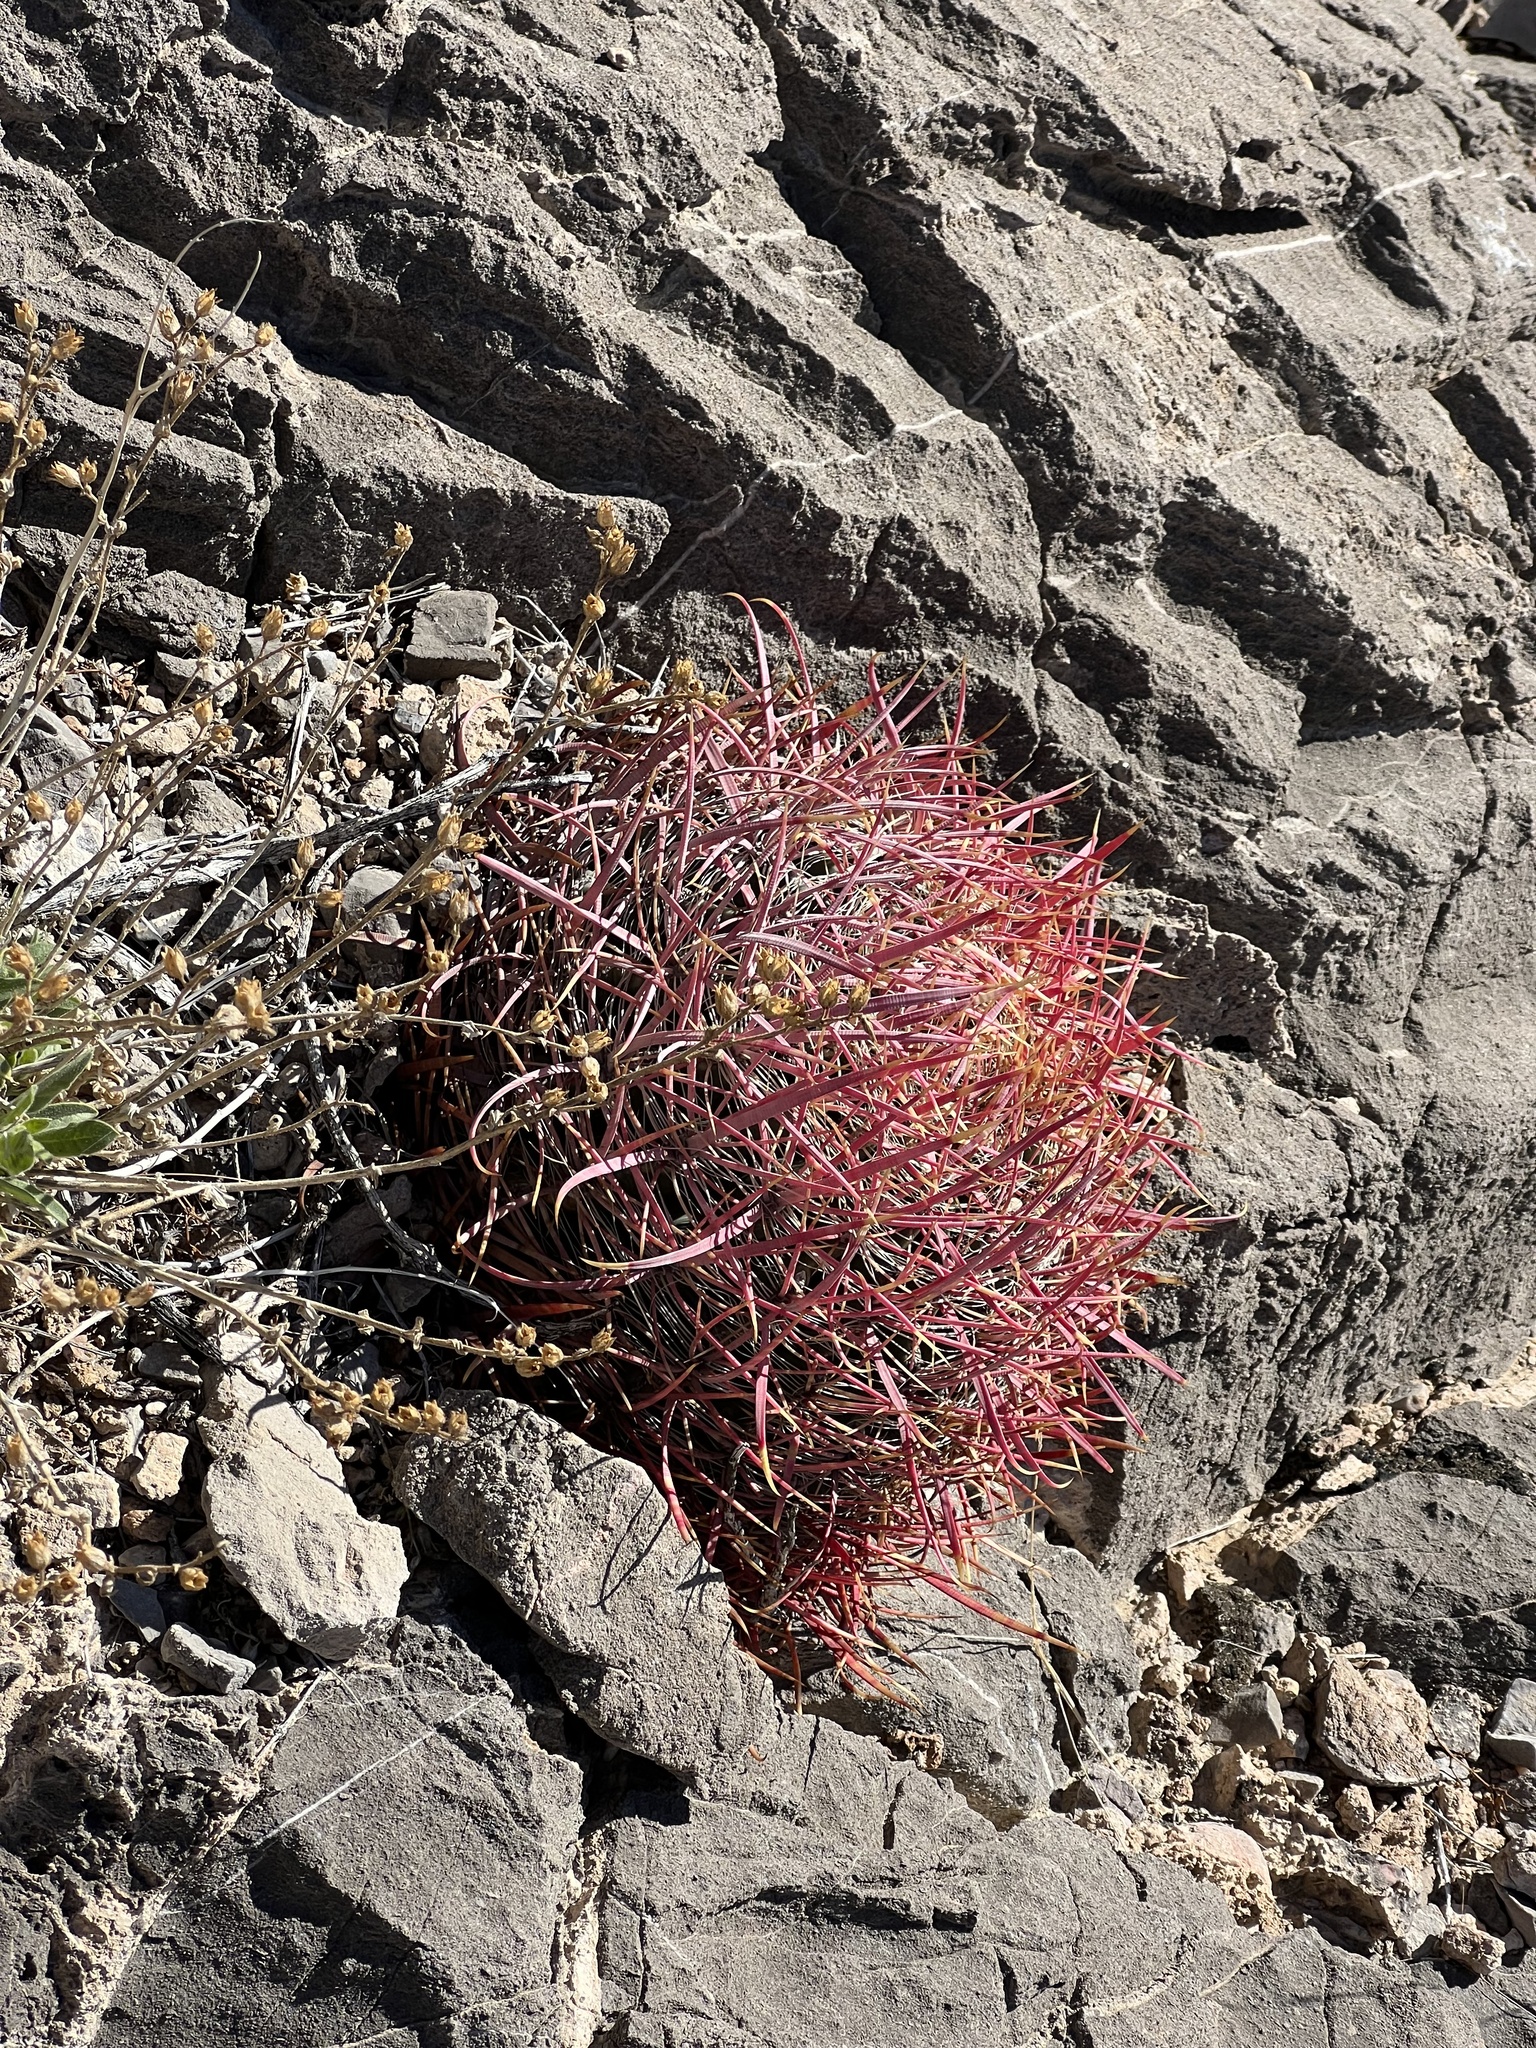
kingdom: Plantae
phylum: Tracheophyta
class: Magnoliopsida
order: Caryophyllales
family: Cactaceae
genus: Ferocactus
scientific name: Ferocactus cylindraceus
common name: California barrel cactus
